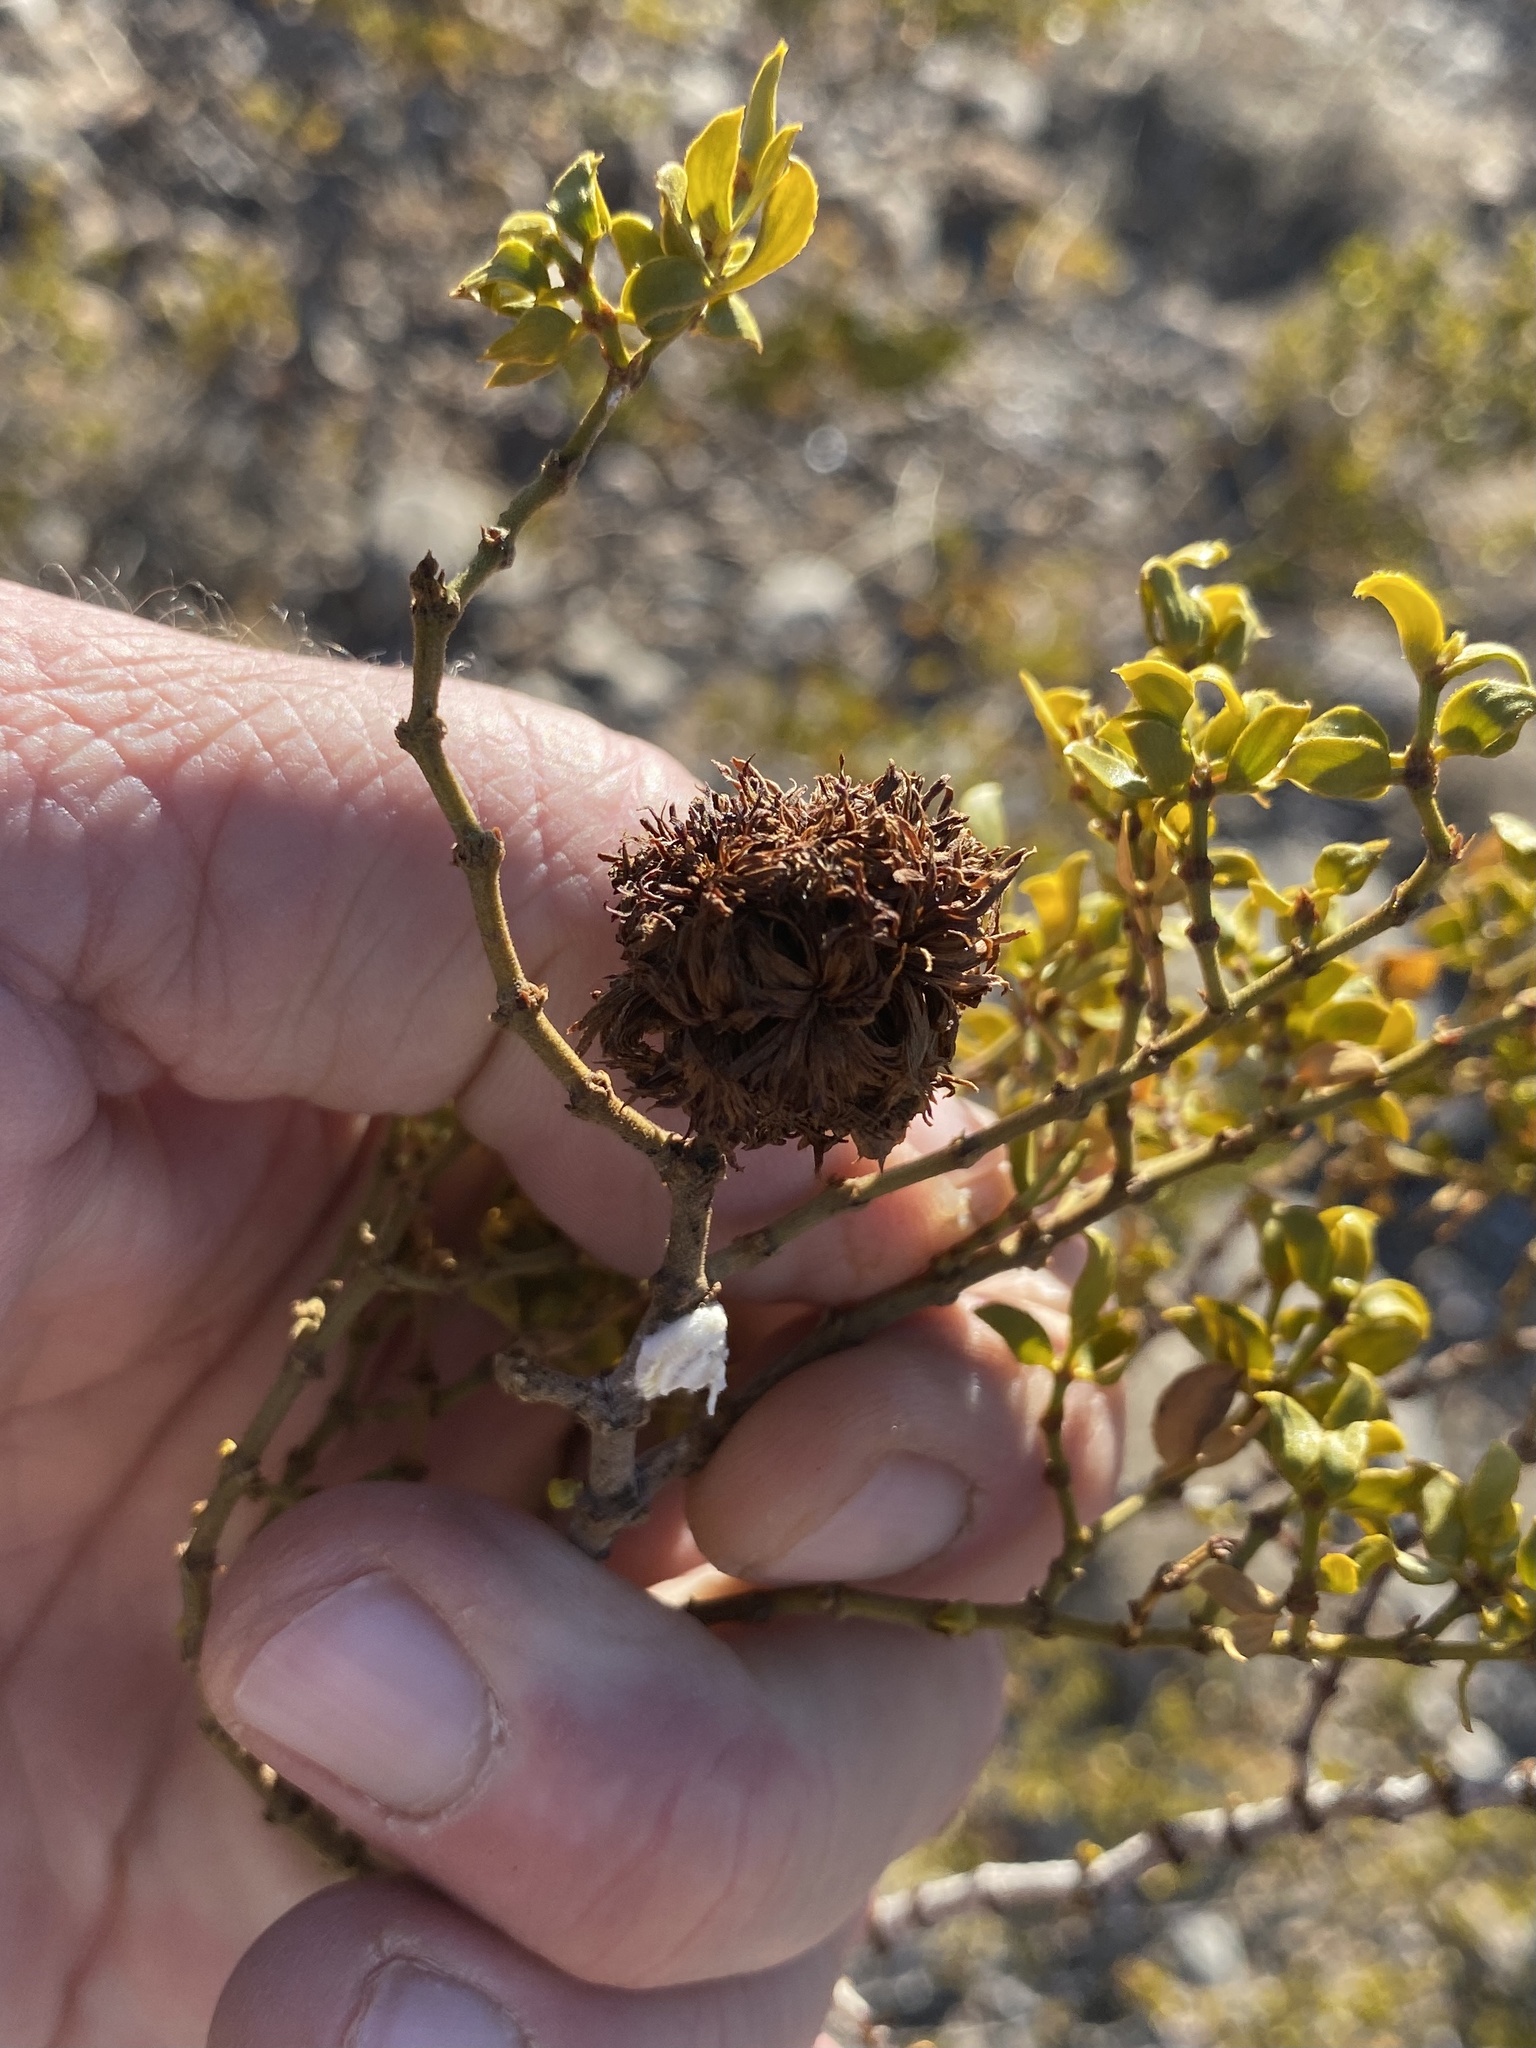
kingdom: Animalia
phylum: Arthropoda
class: Insecta
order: Diptera
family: Cecidomyiidae
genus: Asphondylia
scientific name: Asphondylia auripila
